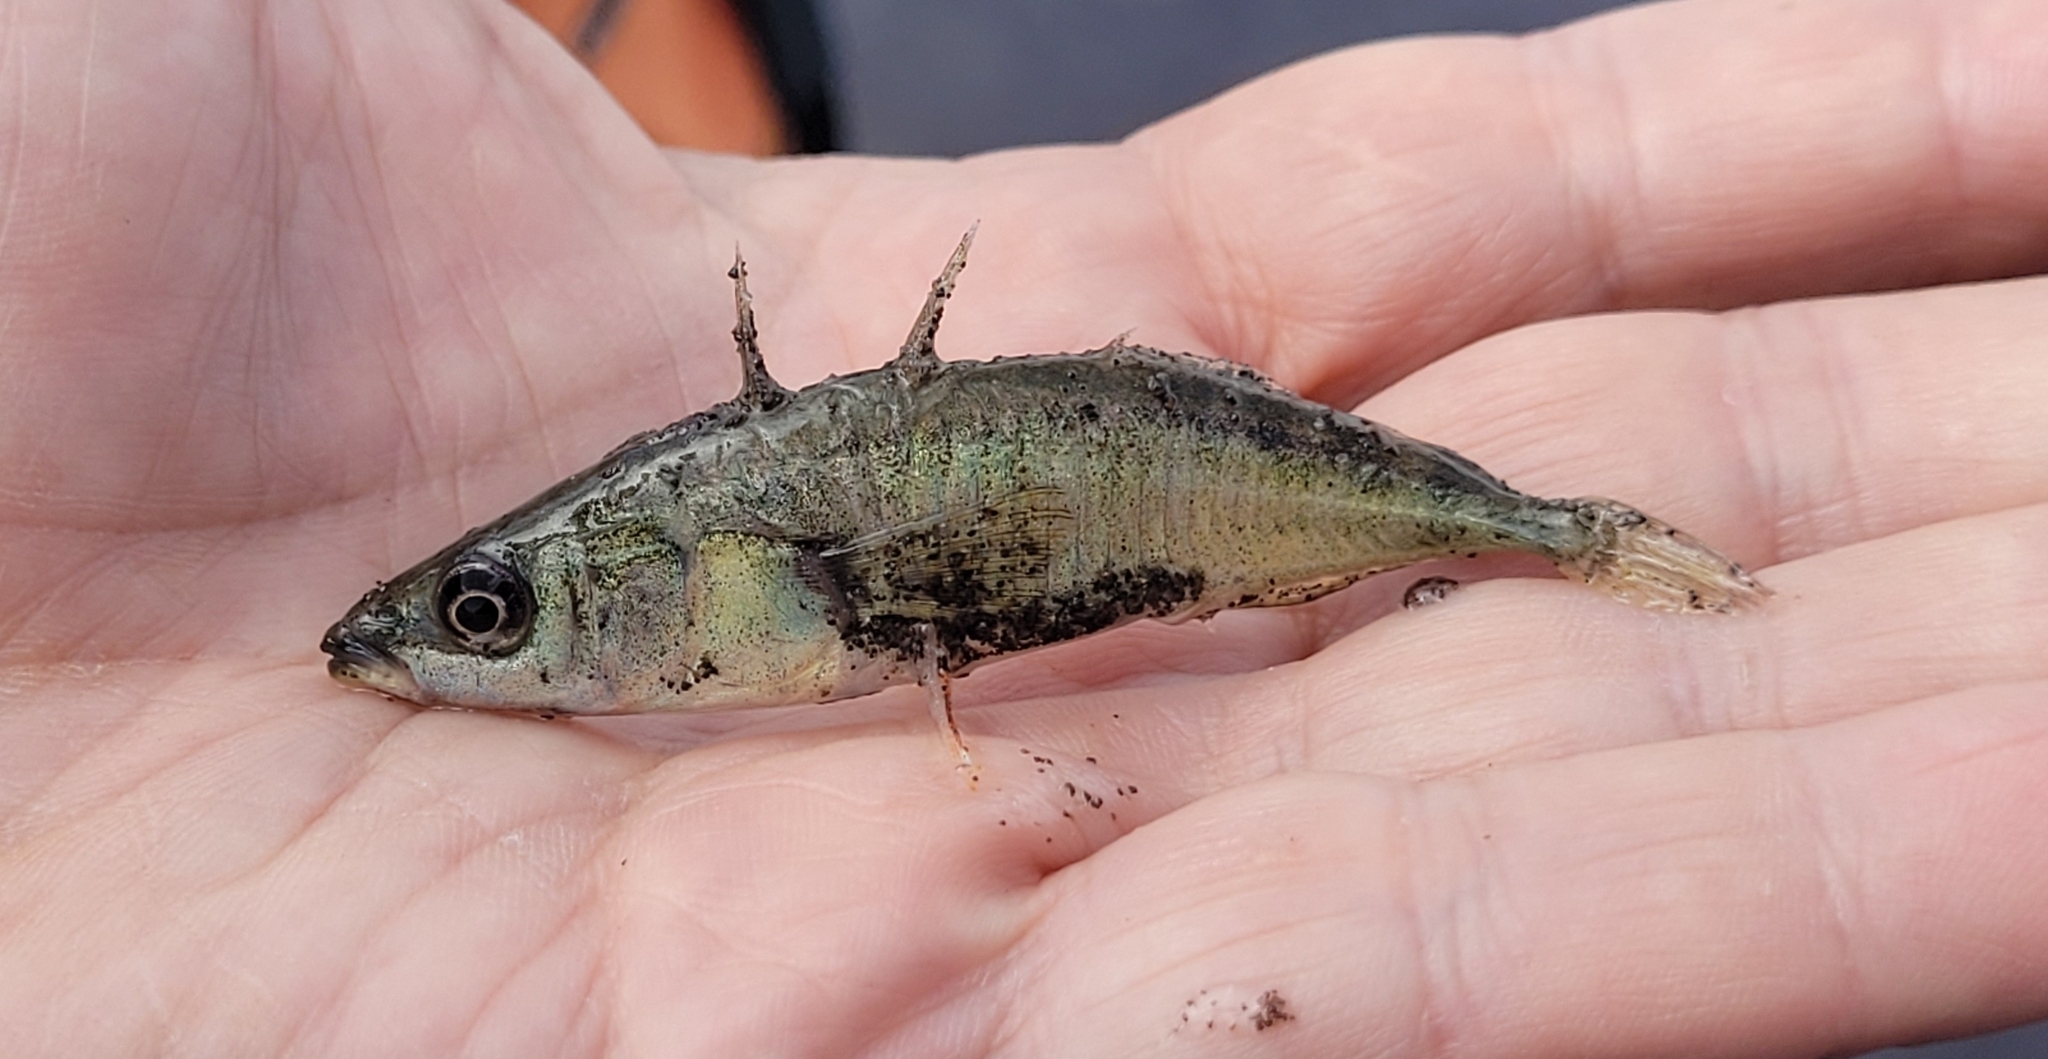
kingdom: Animalia
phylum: Chordata
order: Gasterosteiformes
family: Gasterosteidae
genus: Gasterosteus
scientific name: Gasterosteus aculeatus
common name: Three-spined stickleback
